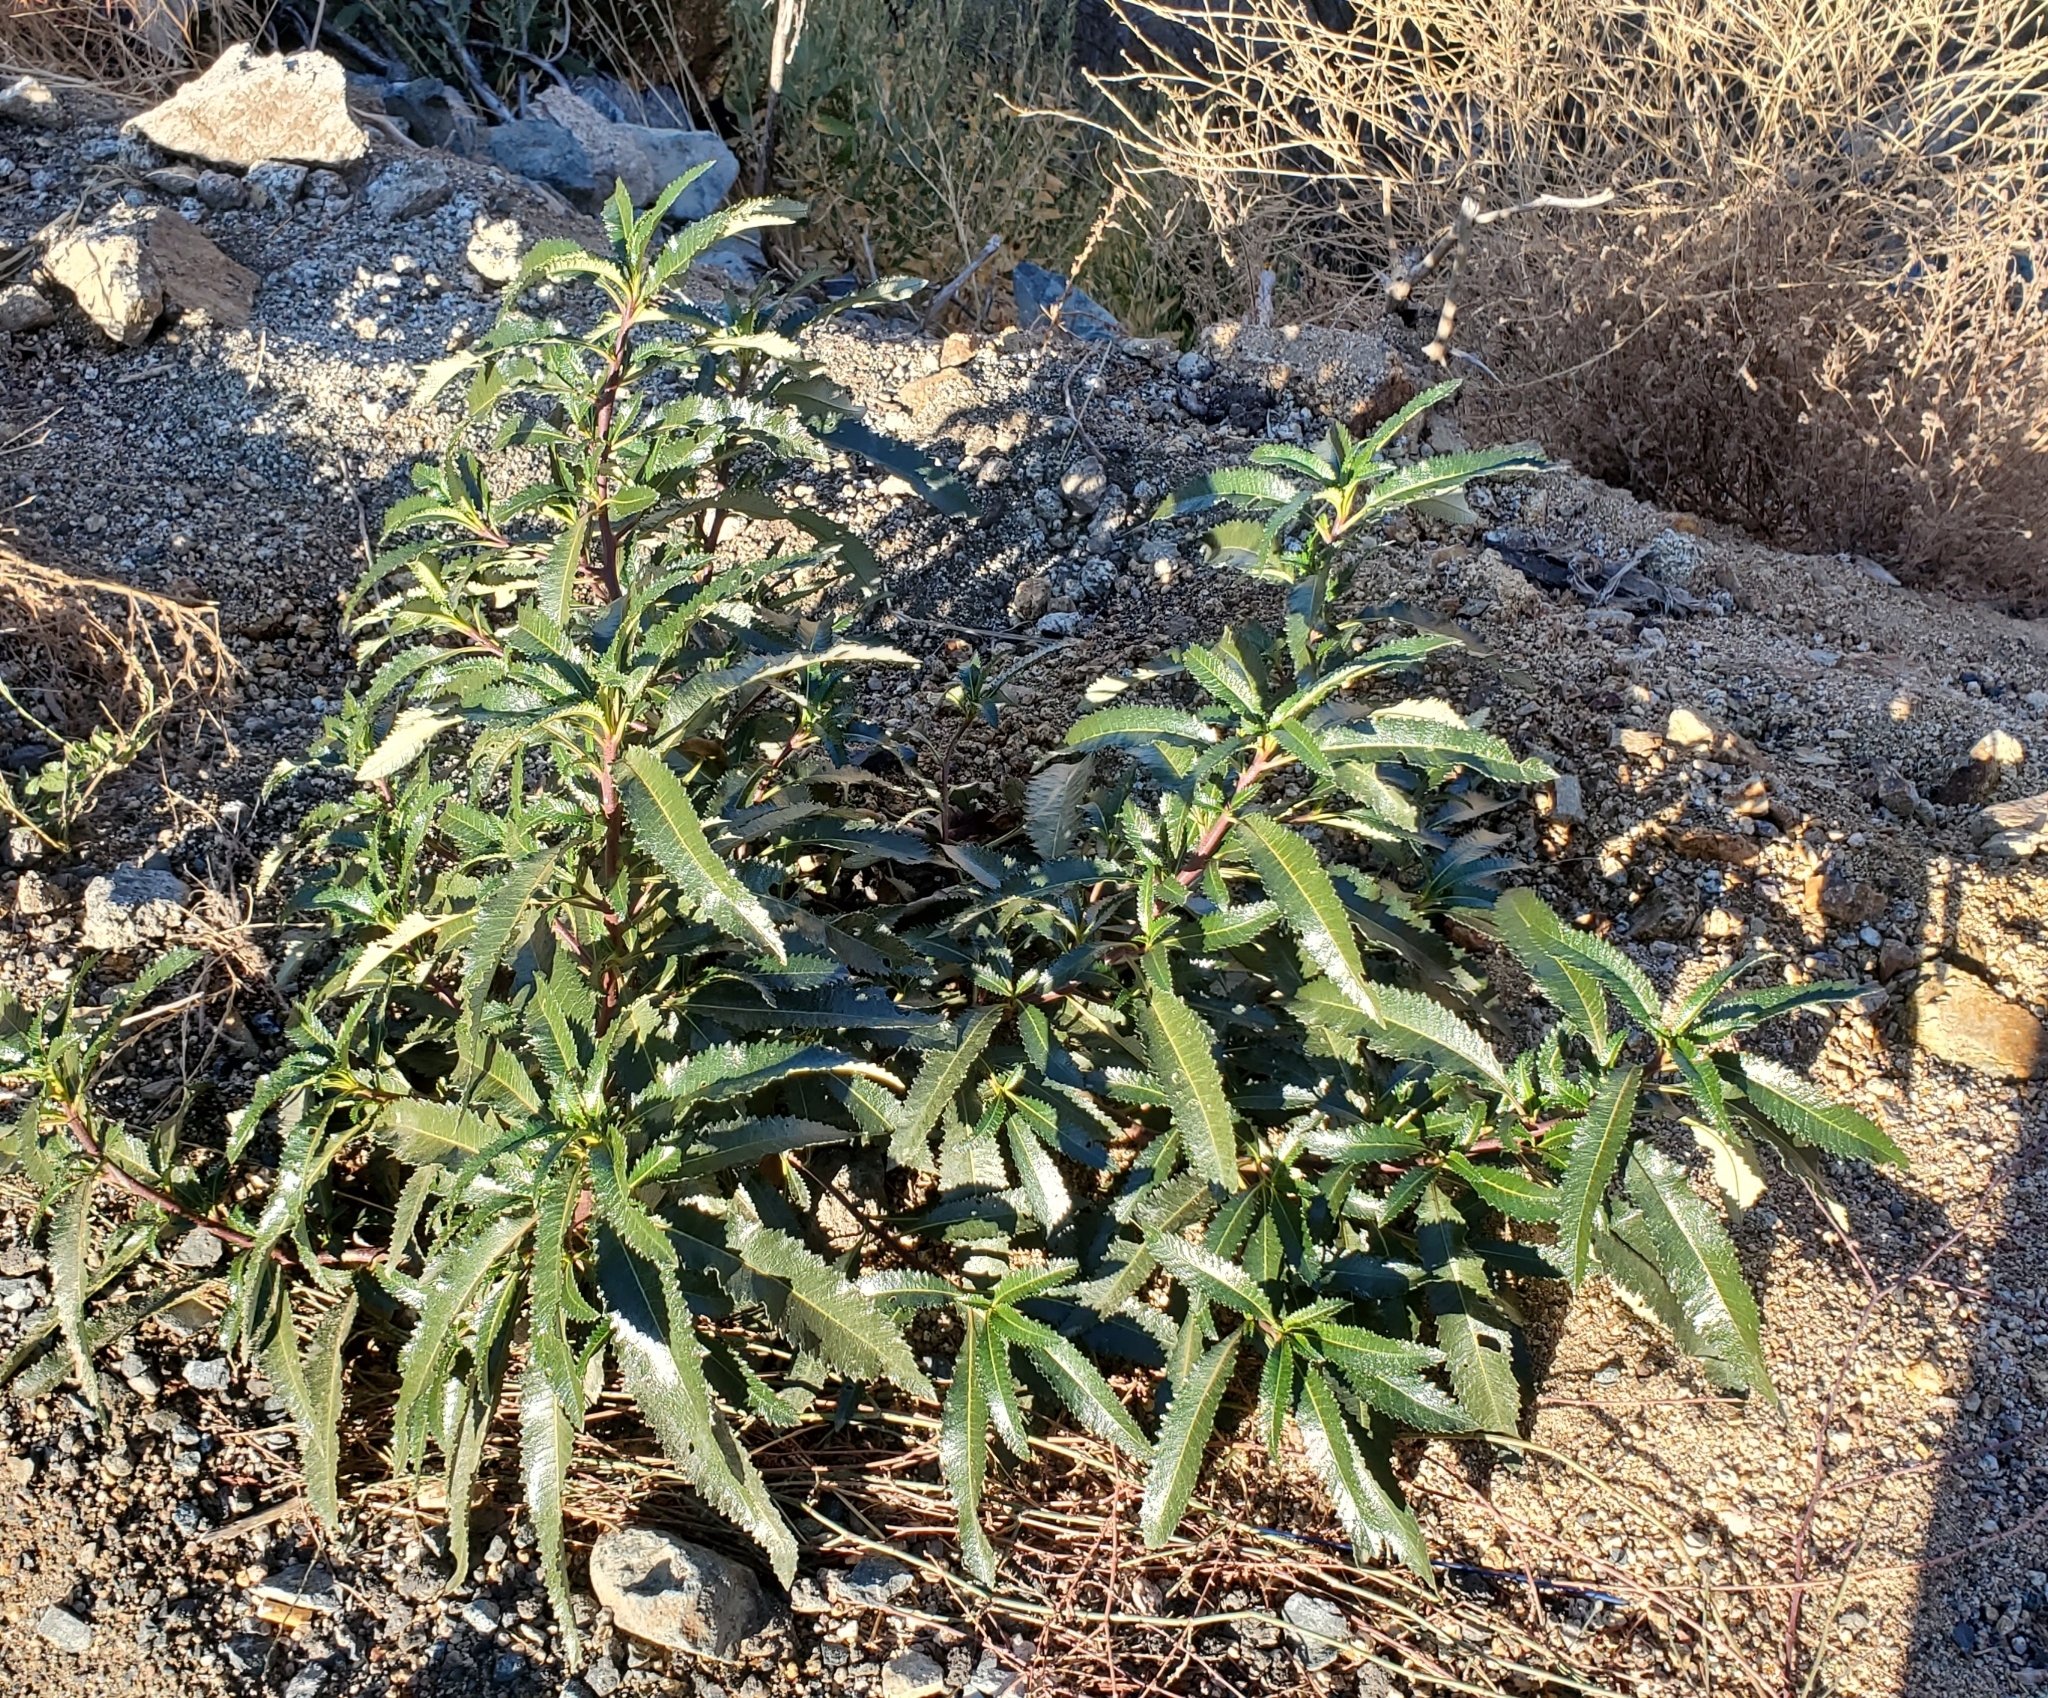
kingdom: Plantae
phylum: Tracheophyta
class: Magnoliopsida
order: Boraginales
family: Namaceae
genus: Eriodictyon
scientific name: Eriodictyon californicum
